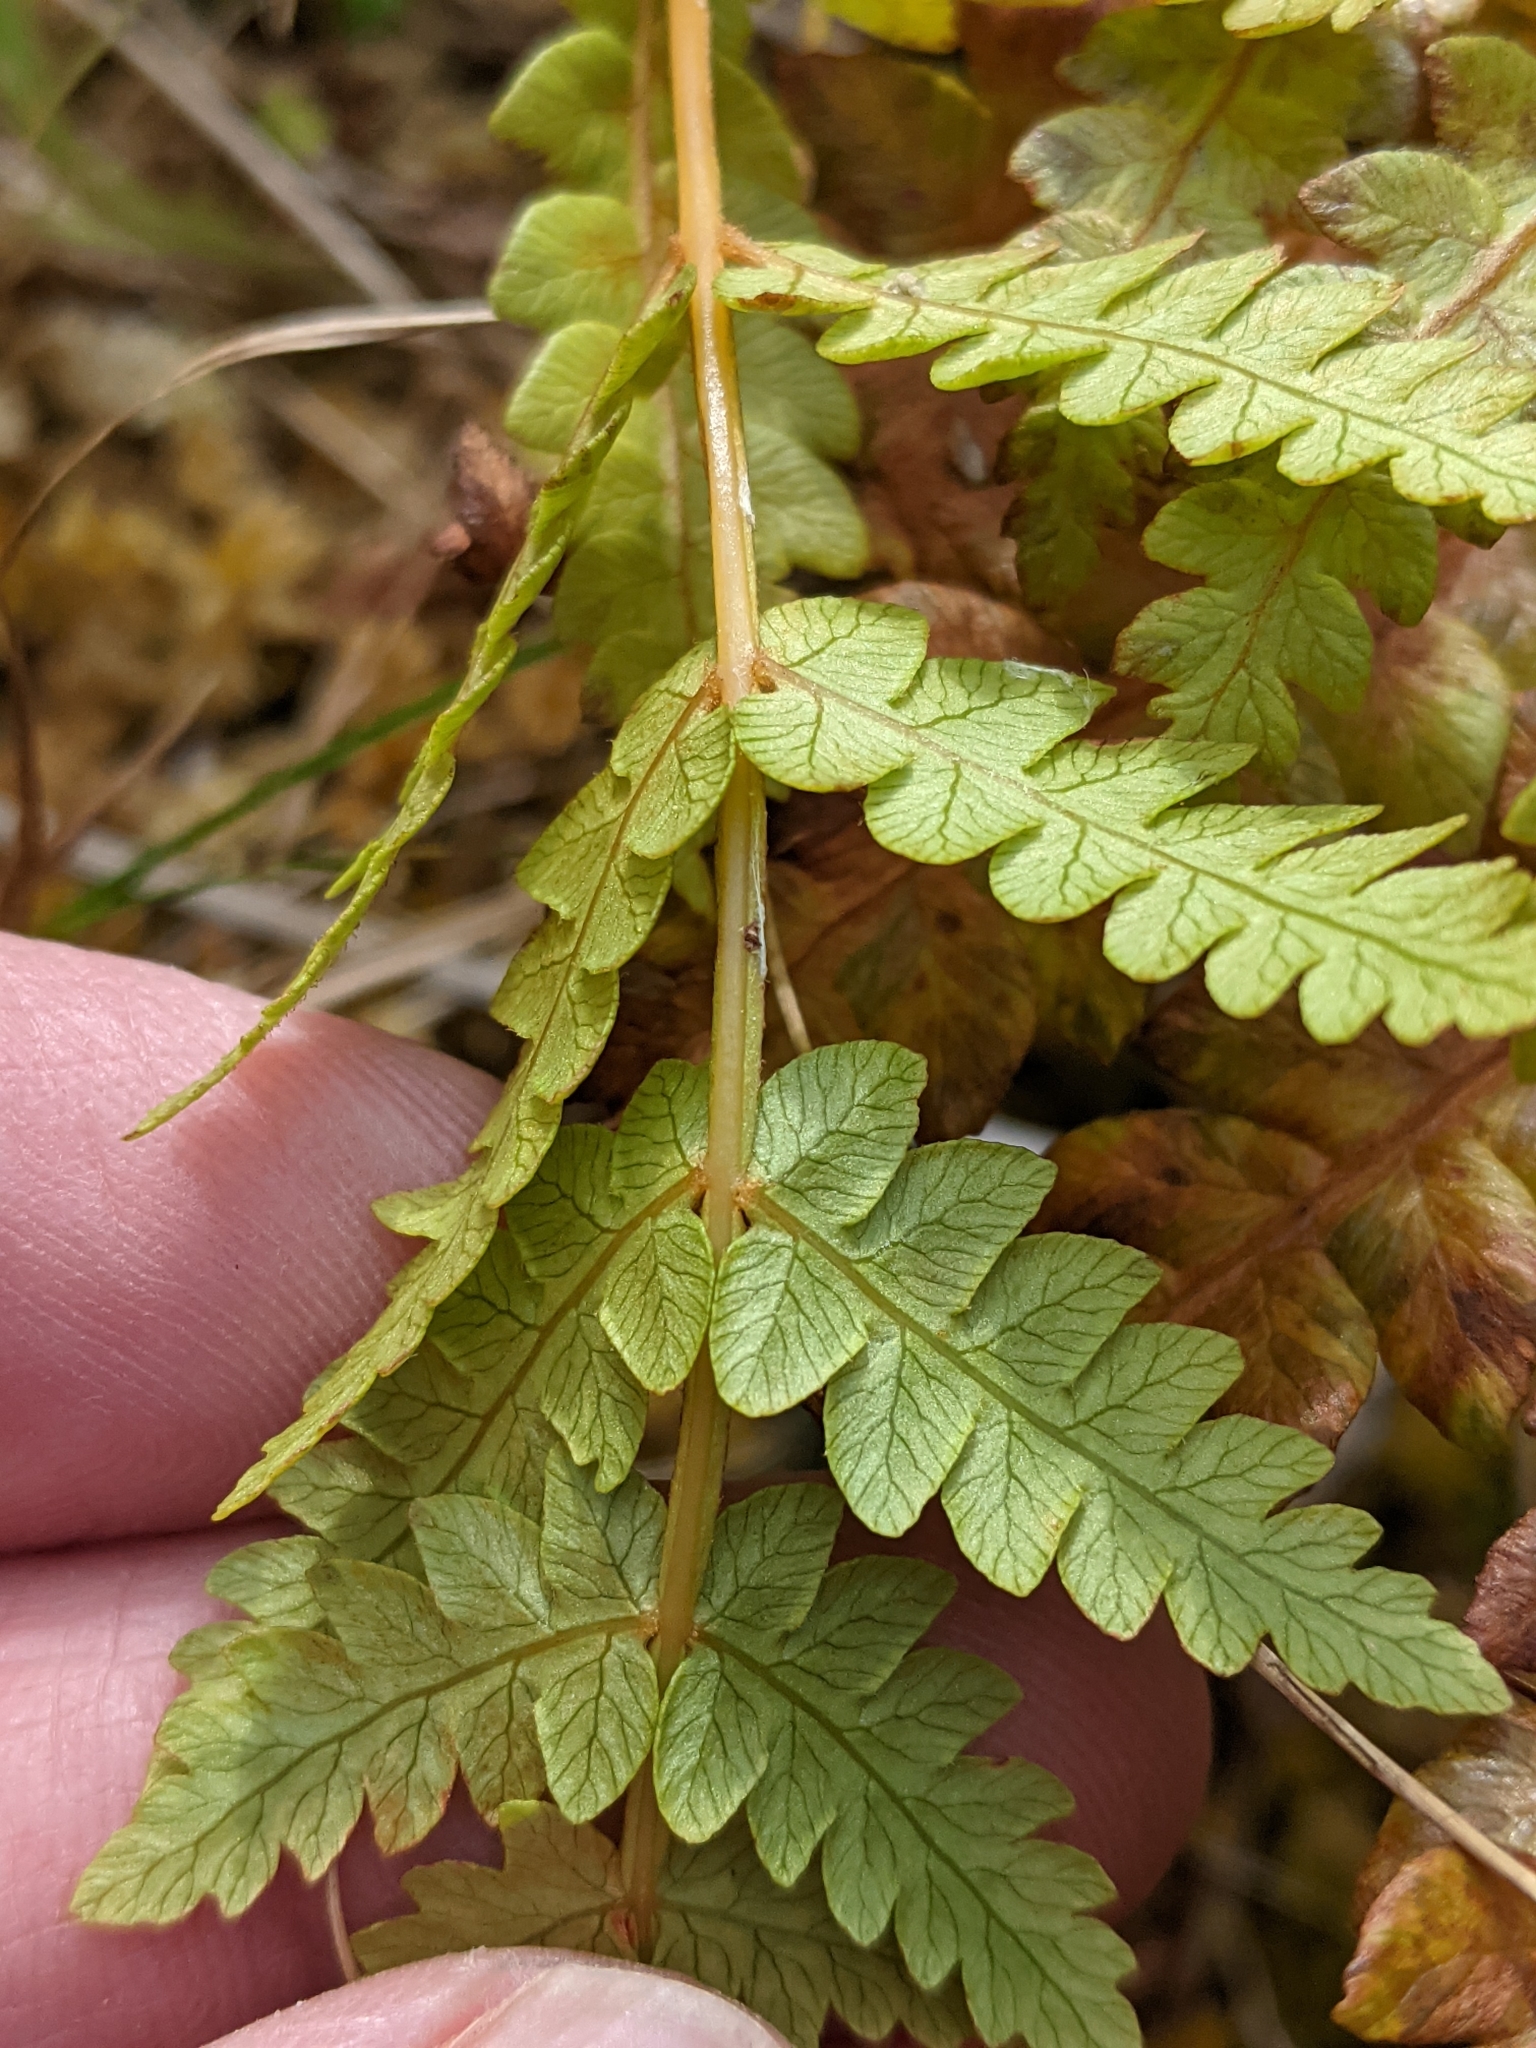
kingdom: Plantae
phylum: Tracheophyta
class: Polypodiopsida
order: Osmundales
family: Osmundaceae
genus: Osmundastrum
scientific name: Osmundastrum cinnamomeum
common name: Cinnamon fern
